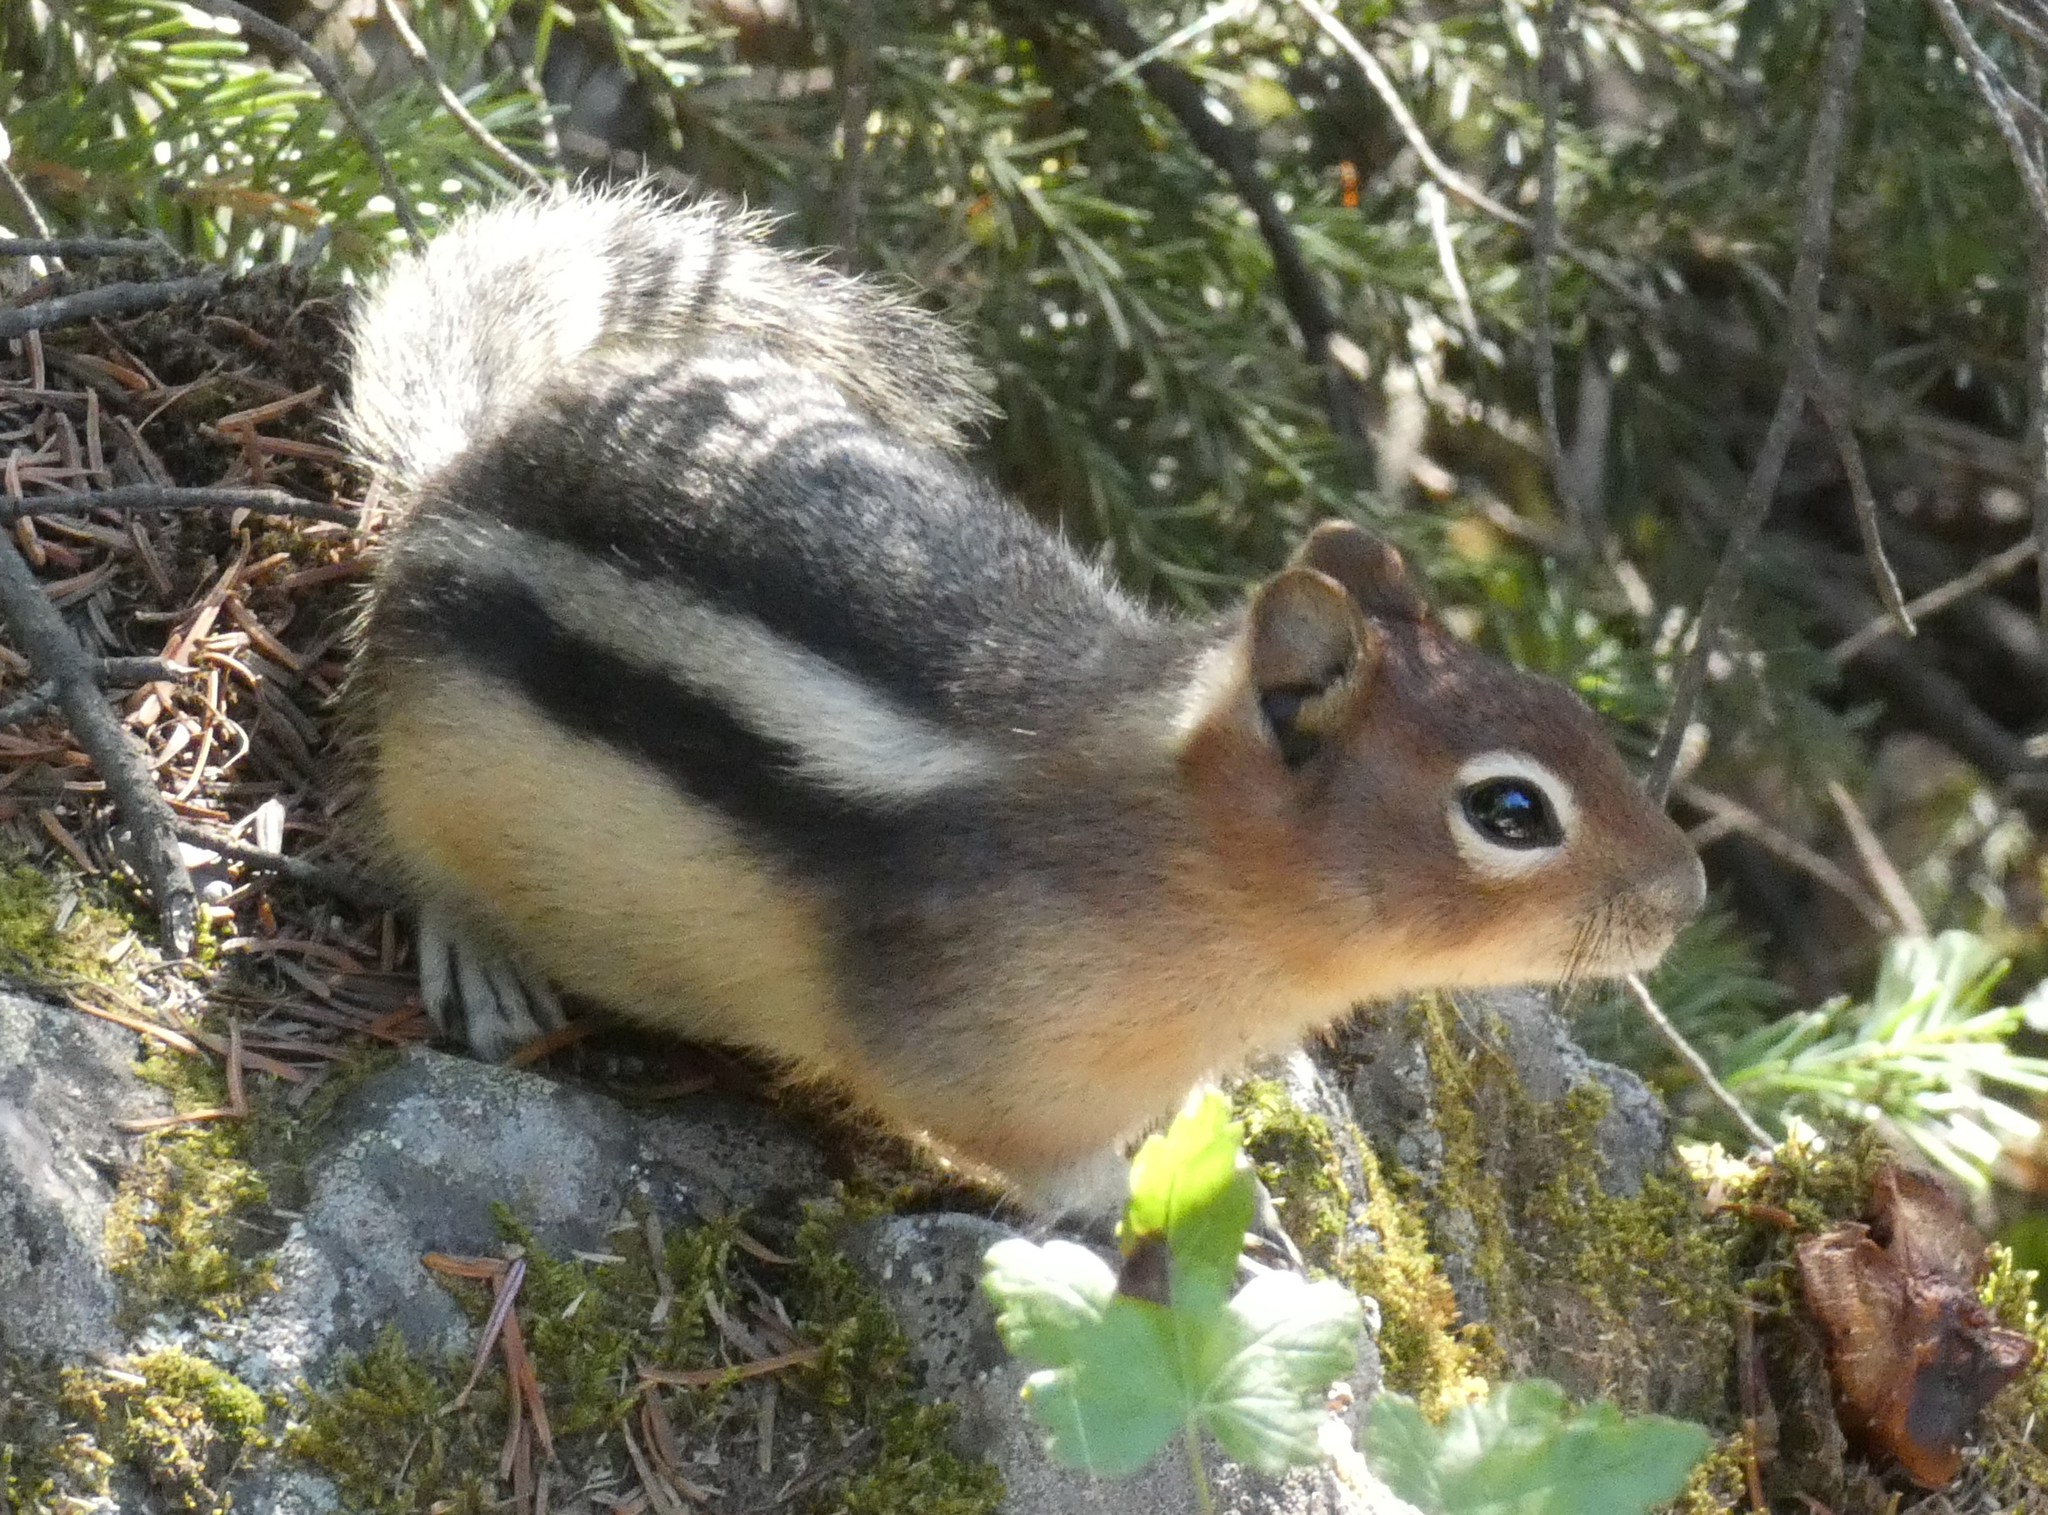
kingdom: Animalia
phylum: Chordata
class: Mammalia
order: Rodentia
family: Sciuridae
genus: Callospermophilus
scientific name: Callospermophilus lateralis
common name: Golden-mantled ground squirrel
